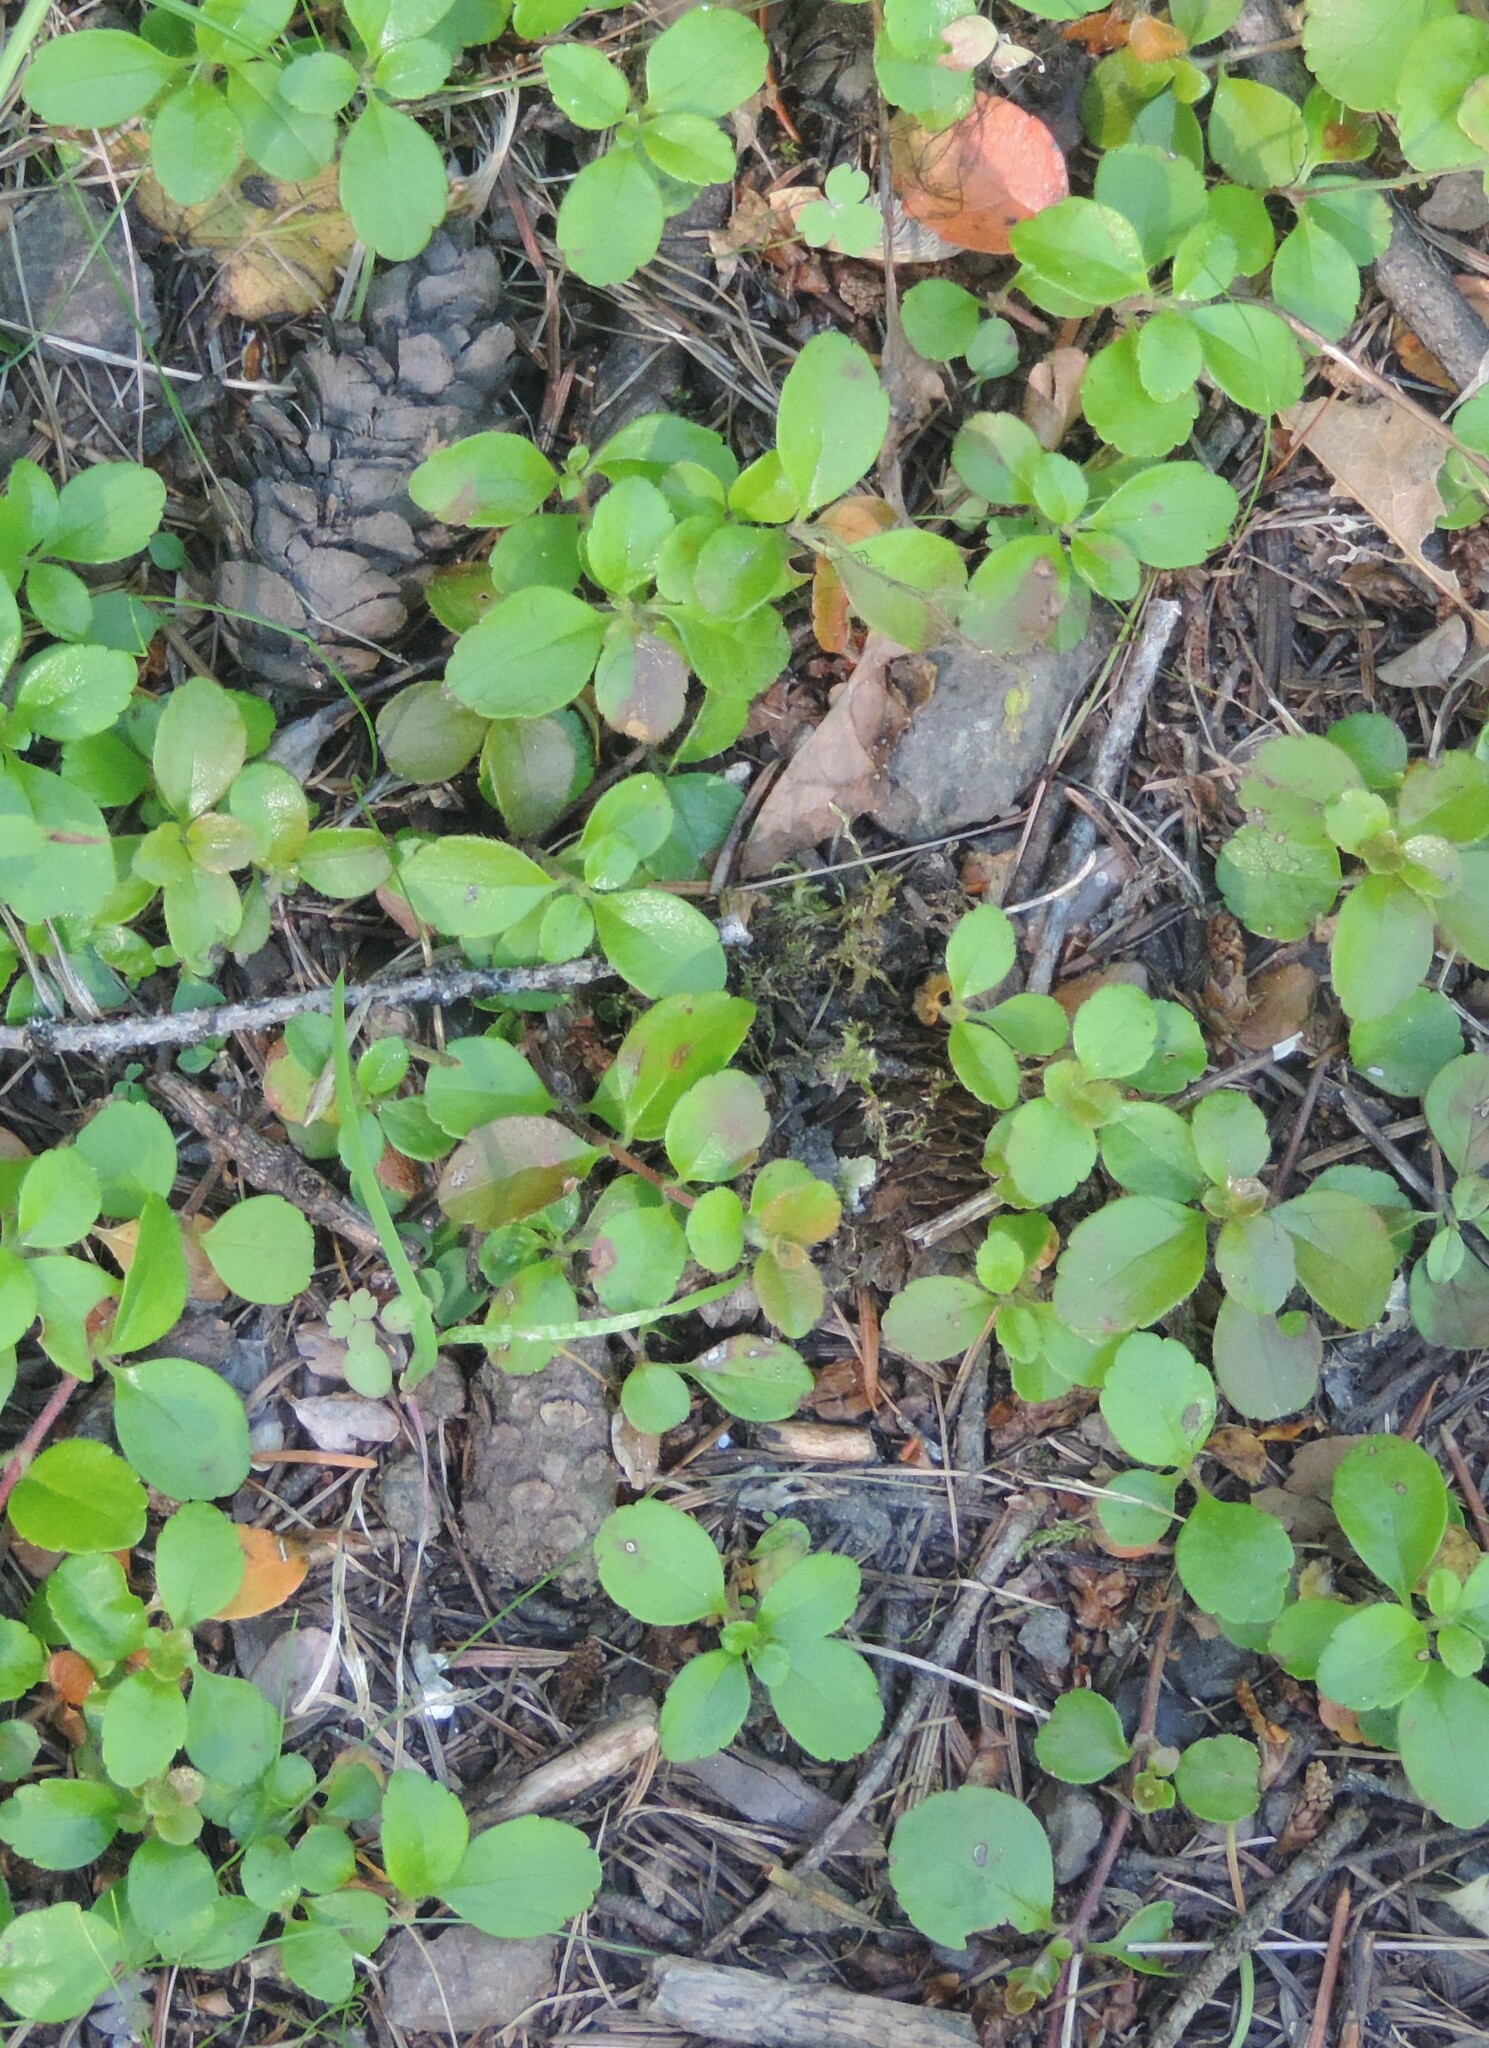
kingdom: Plantae
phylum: Tracheophyta
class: Magnoliopsida
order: Dipsacales
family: Caprifoliaceae
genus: Linnaea
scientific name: Linnaea borealis
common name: Twinflower
